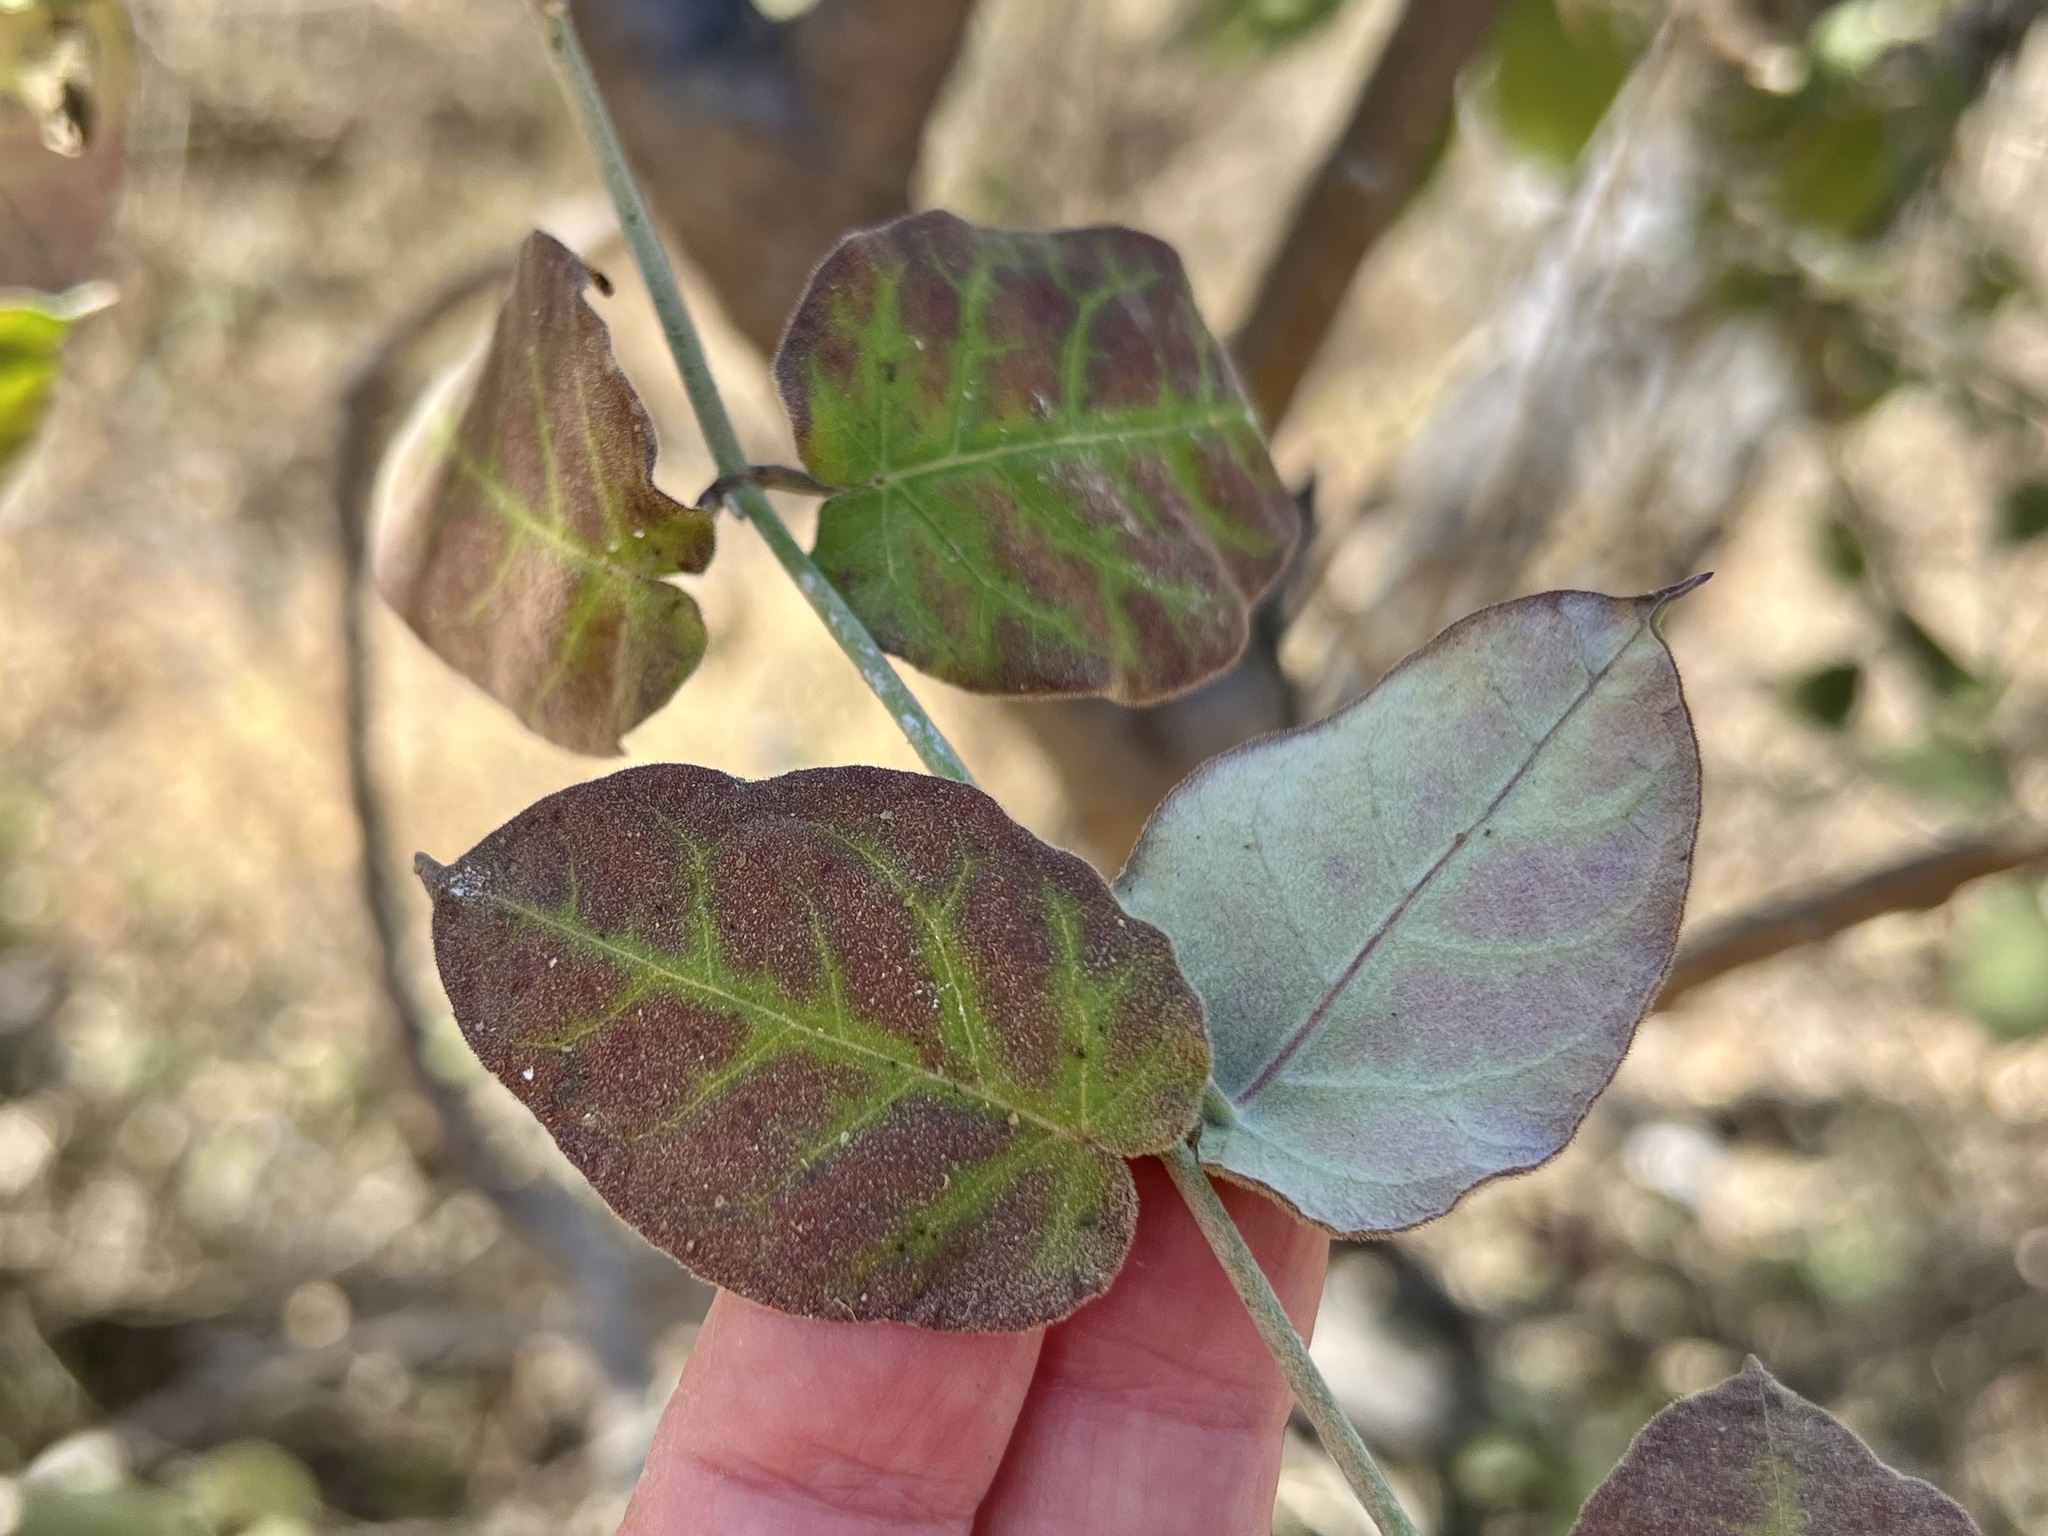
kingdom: Plantae
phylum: Tracheophyta
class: Magnoliopsida
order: Gentianales
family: Apocynaceae
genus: Funastrum
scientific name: Funastrum pannosum
